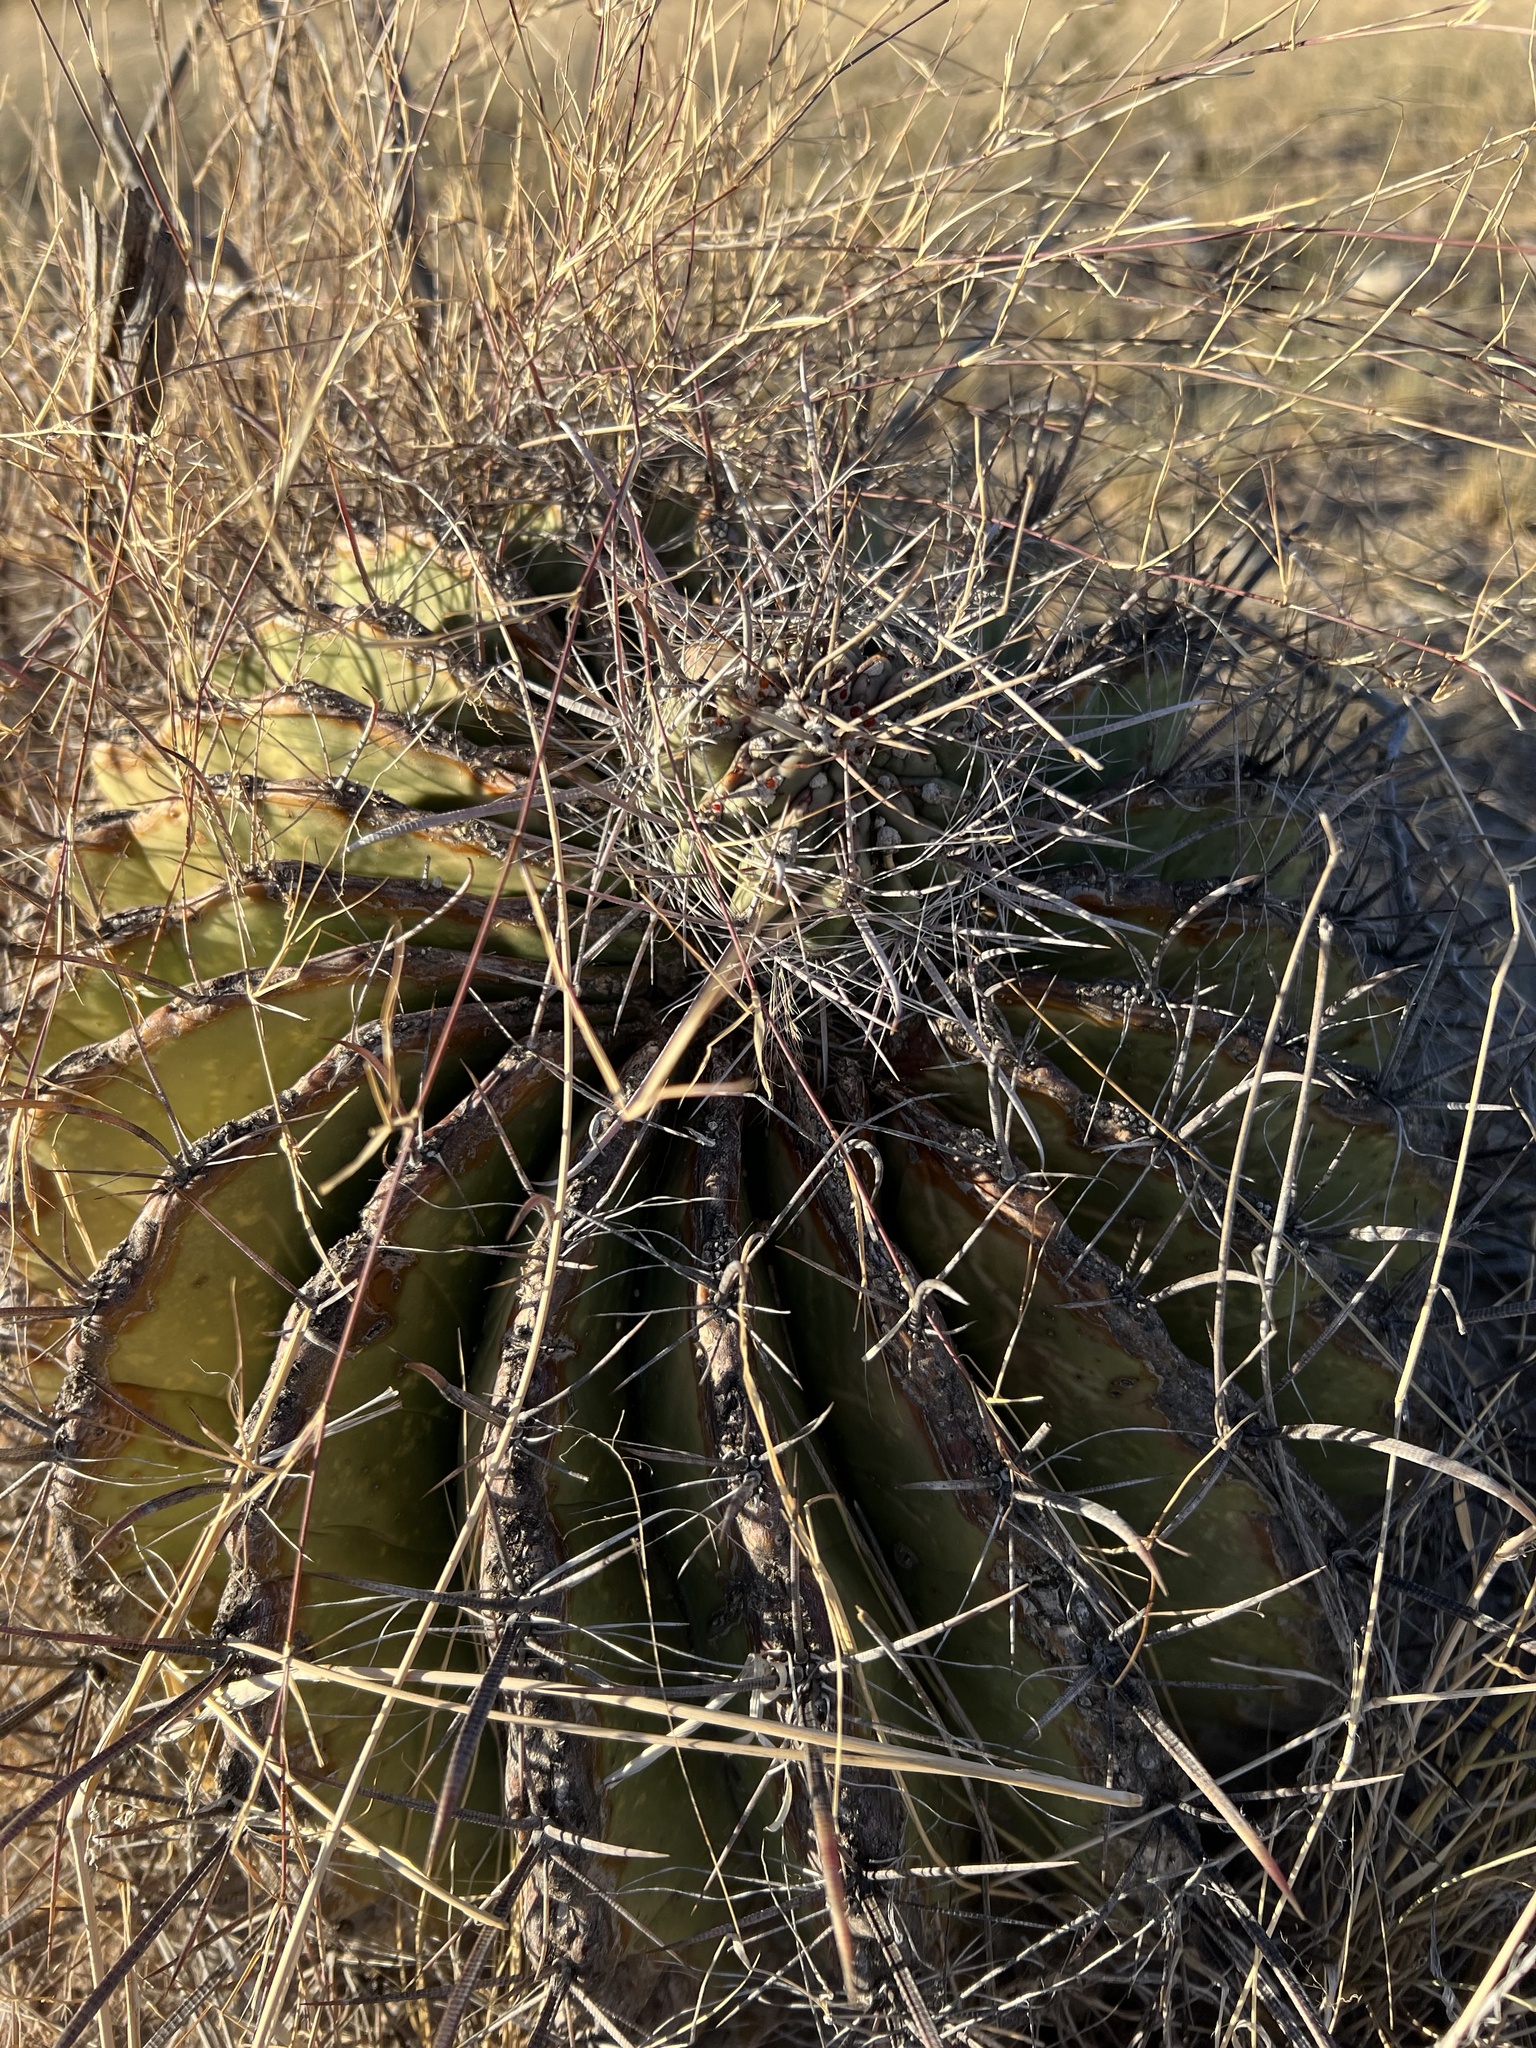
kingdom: Plantae
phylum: Tracheophyta
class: Magnoliopsida
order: Caryophyllales
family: Cactaceae
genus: Ferocactus
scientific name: Ferocactus wislizeni
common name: Candy barrel cactus
